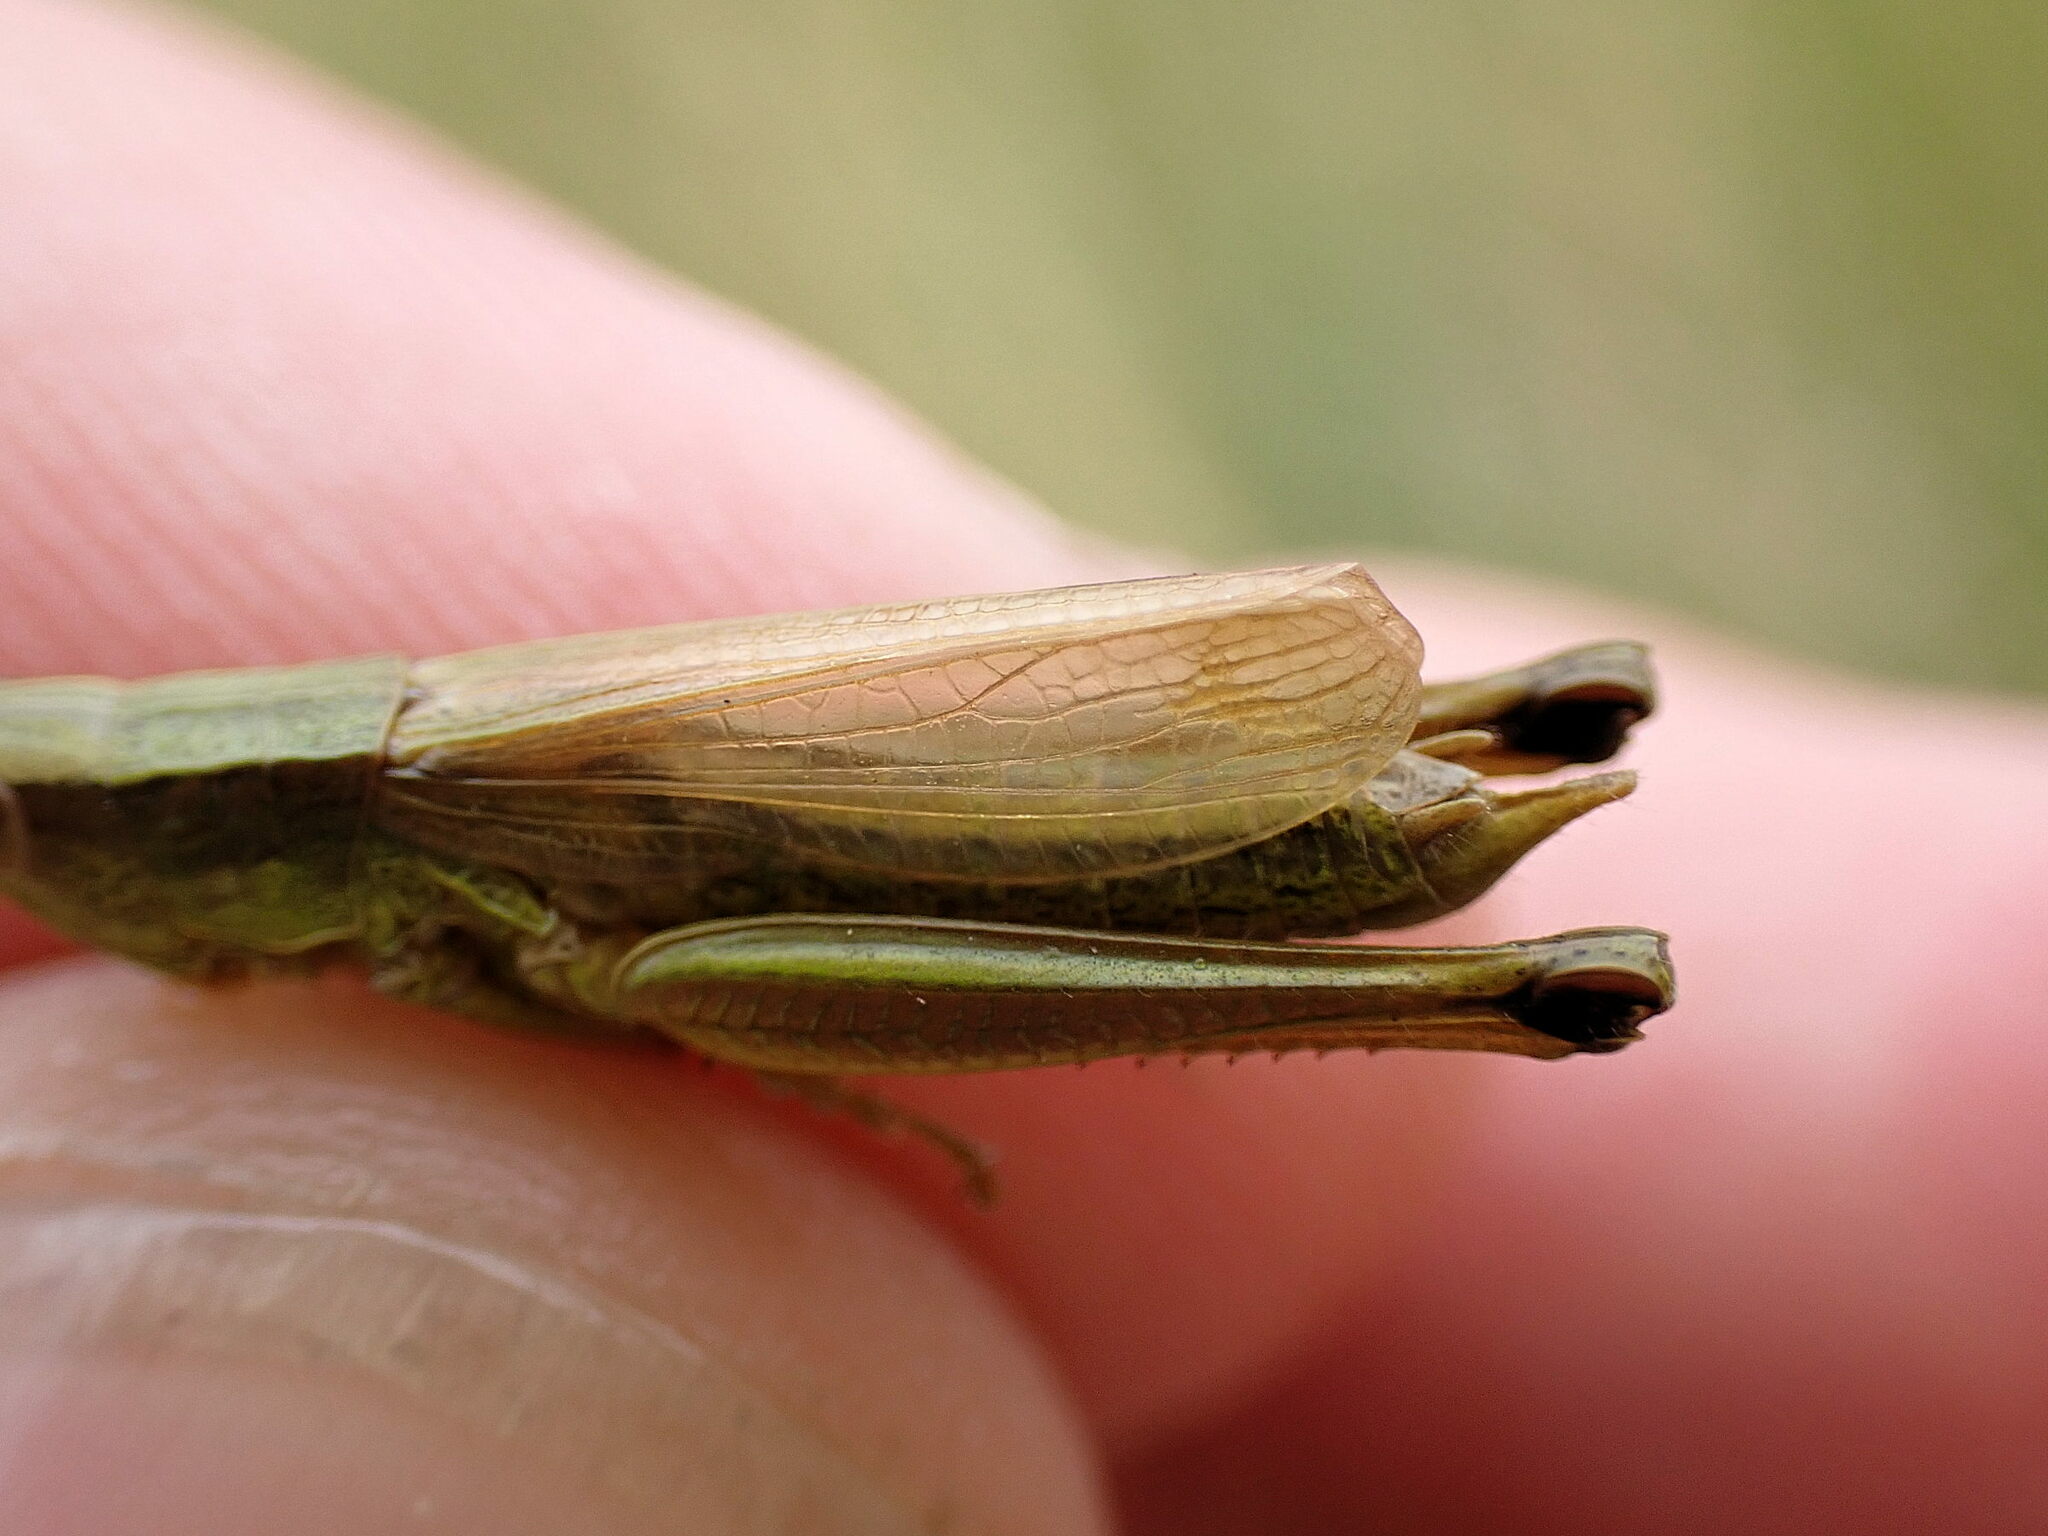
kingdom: Animalia
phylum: Arthropoda
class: Insecta
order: Orthoptera
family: Acrididae
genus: Chrysochraon
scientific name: Chrysochraon dispar
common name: Large gold grasshopper
